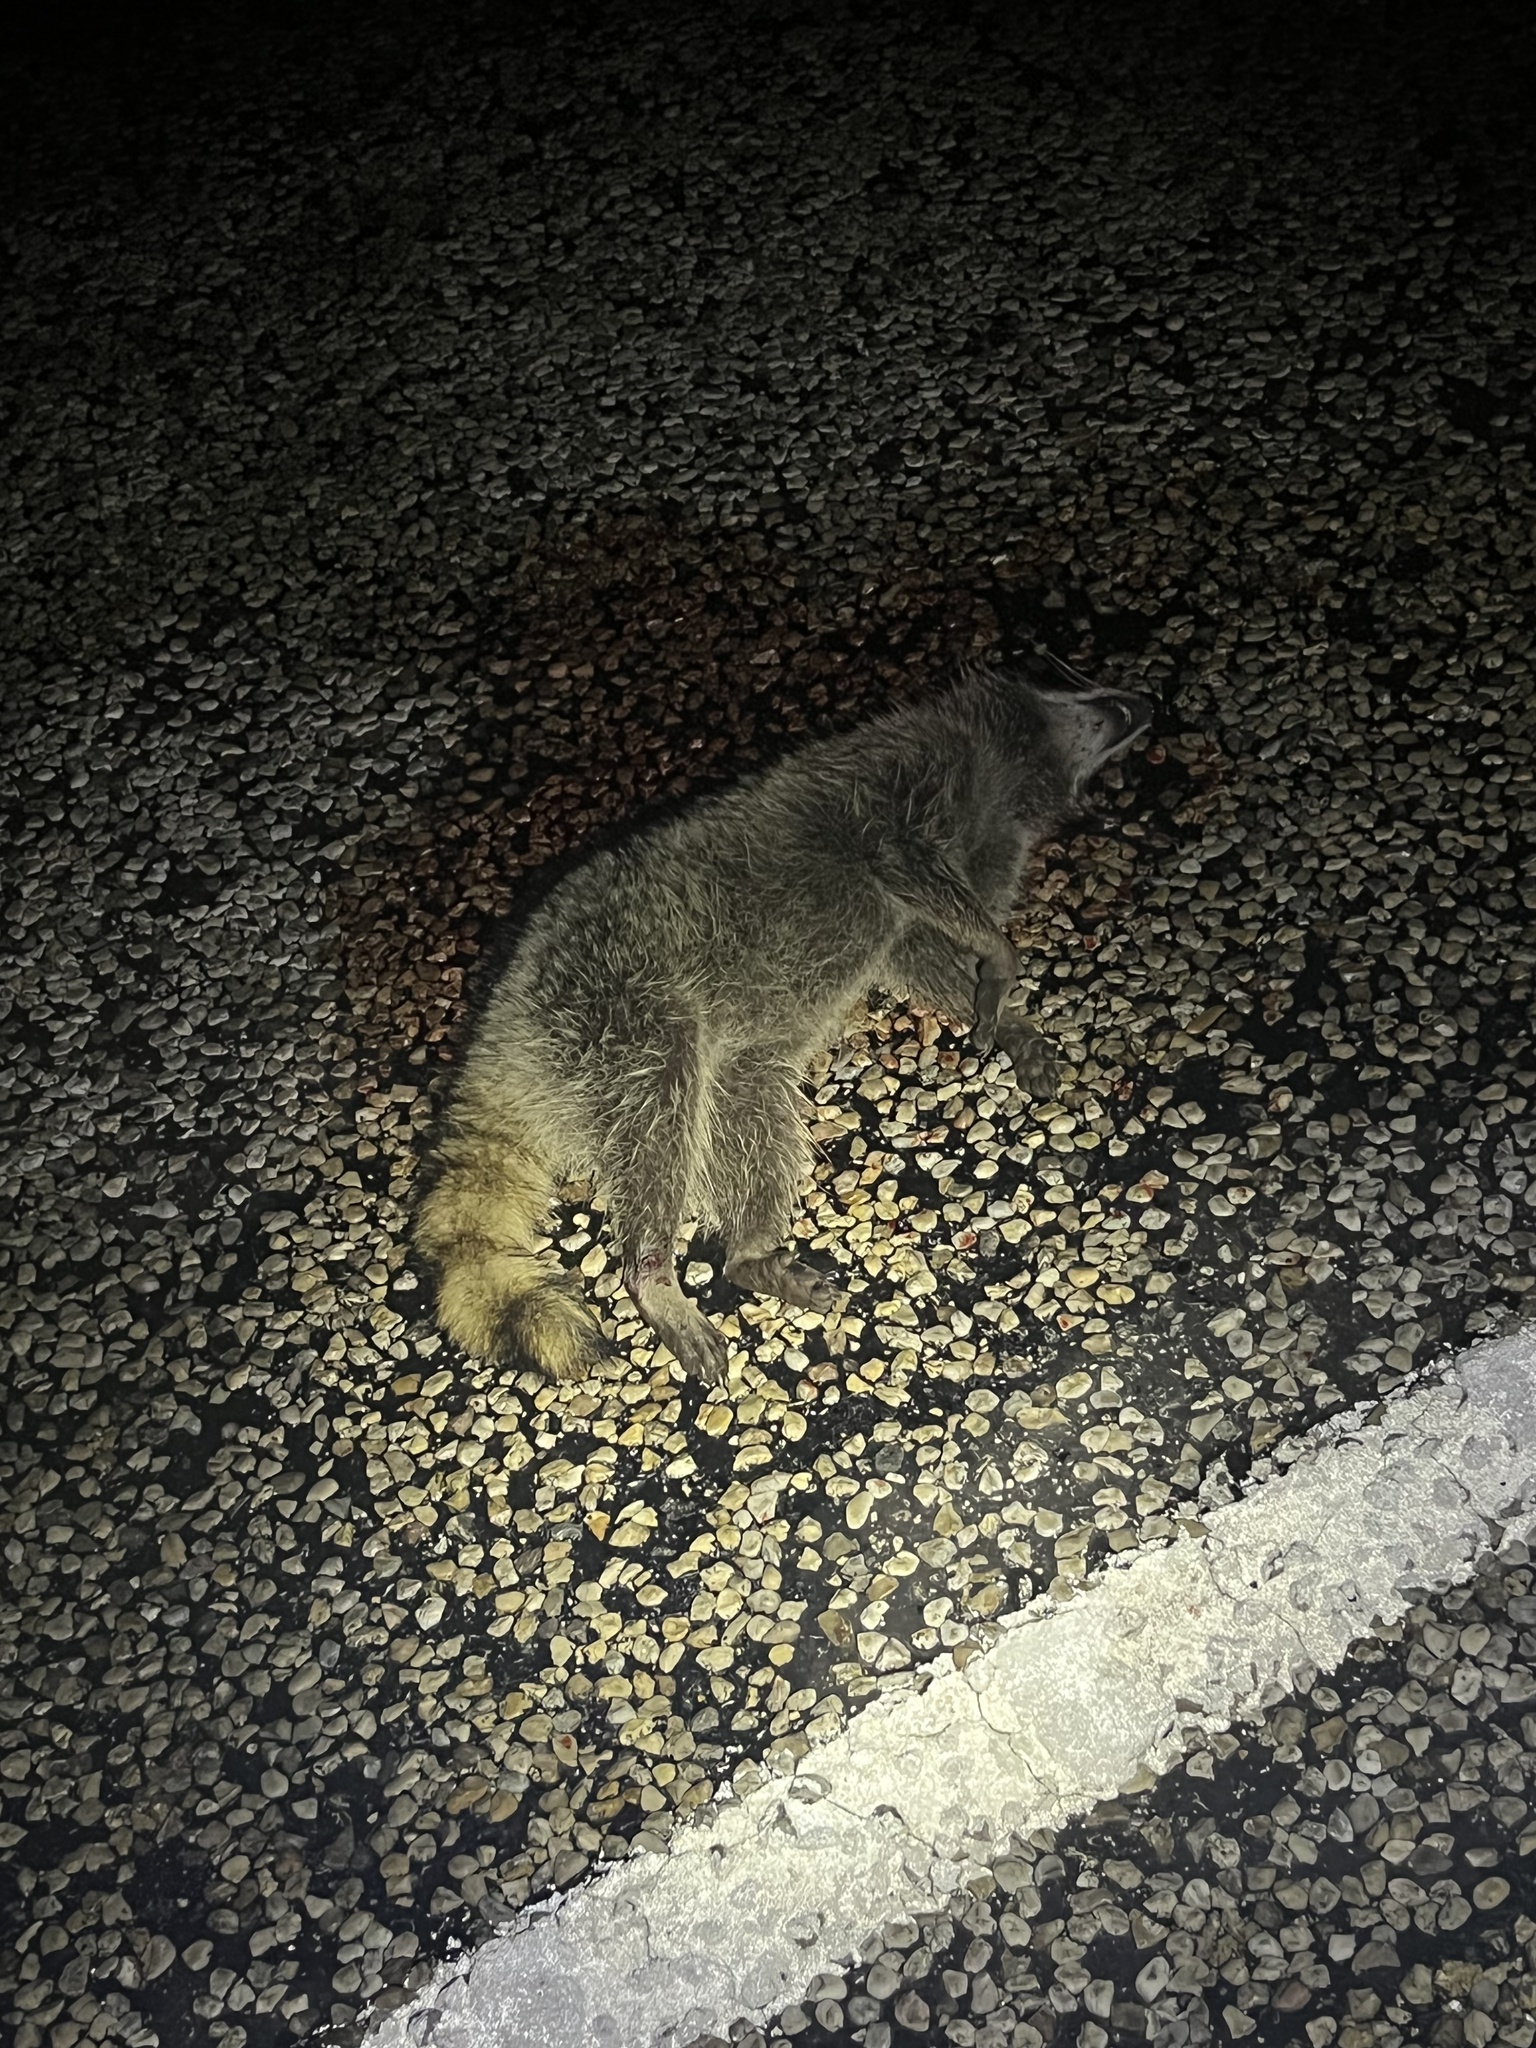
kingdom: Animalia
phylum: Chordata
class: Mammalia
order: Carnivora
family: Procyonidae
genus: Procyon
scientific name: Procyon lotor
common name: Raccoon
